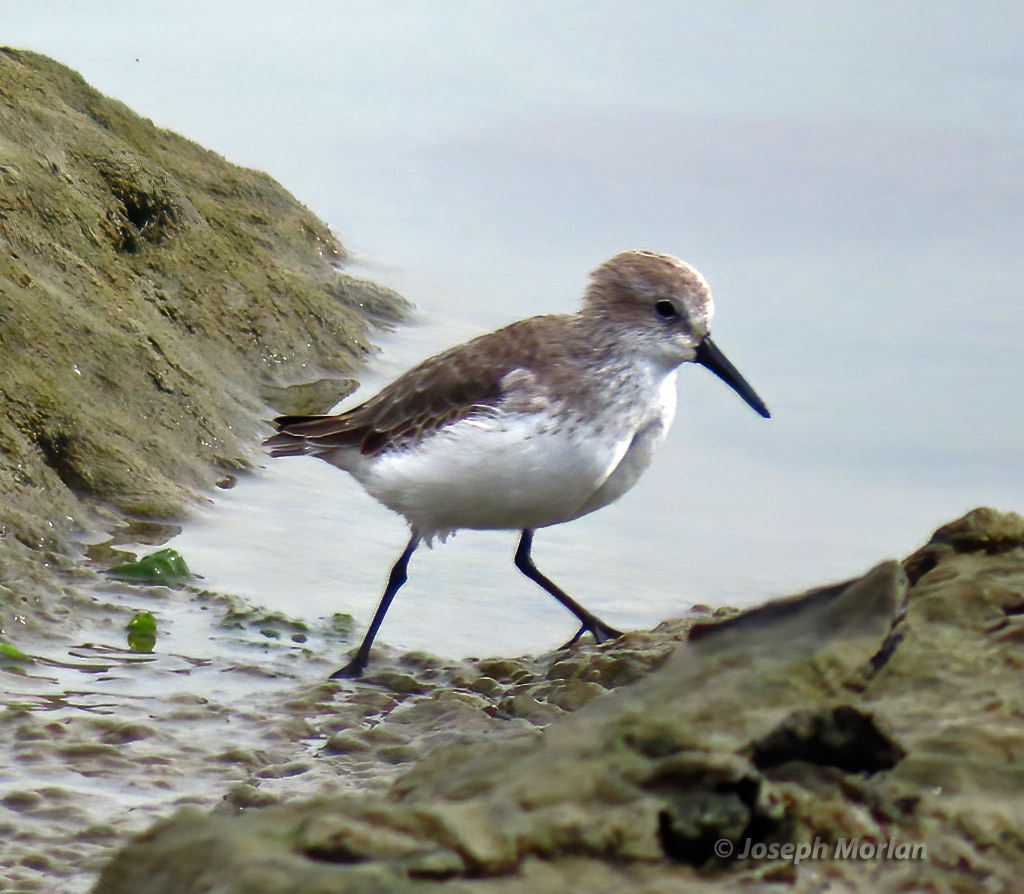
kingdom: Animalia
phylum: Chordata
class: Aves
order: Charadriiformes
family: Scolopacidae
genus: Calidris
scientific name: Calidris mauri
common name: Western sandpiper
